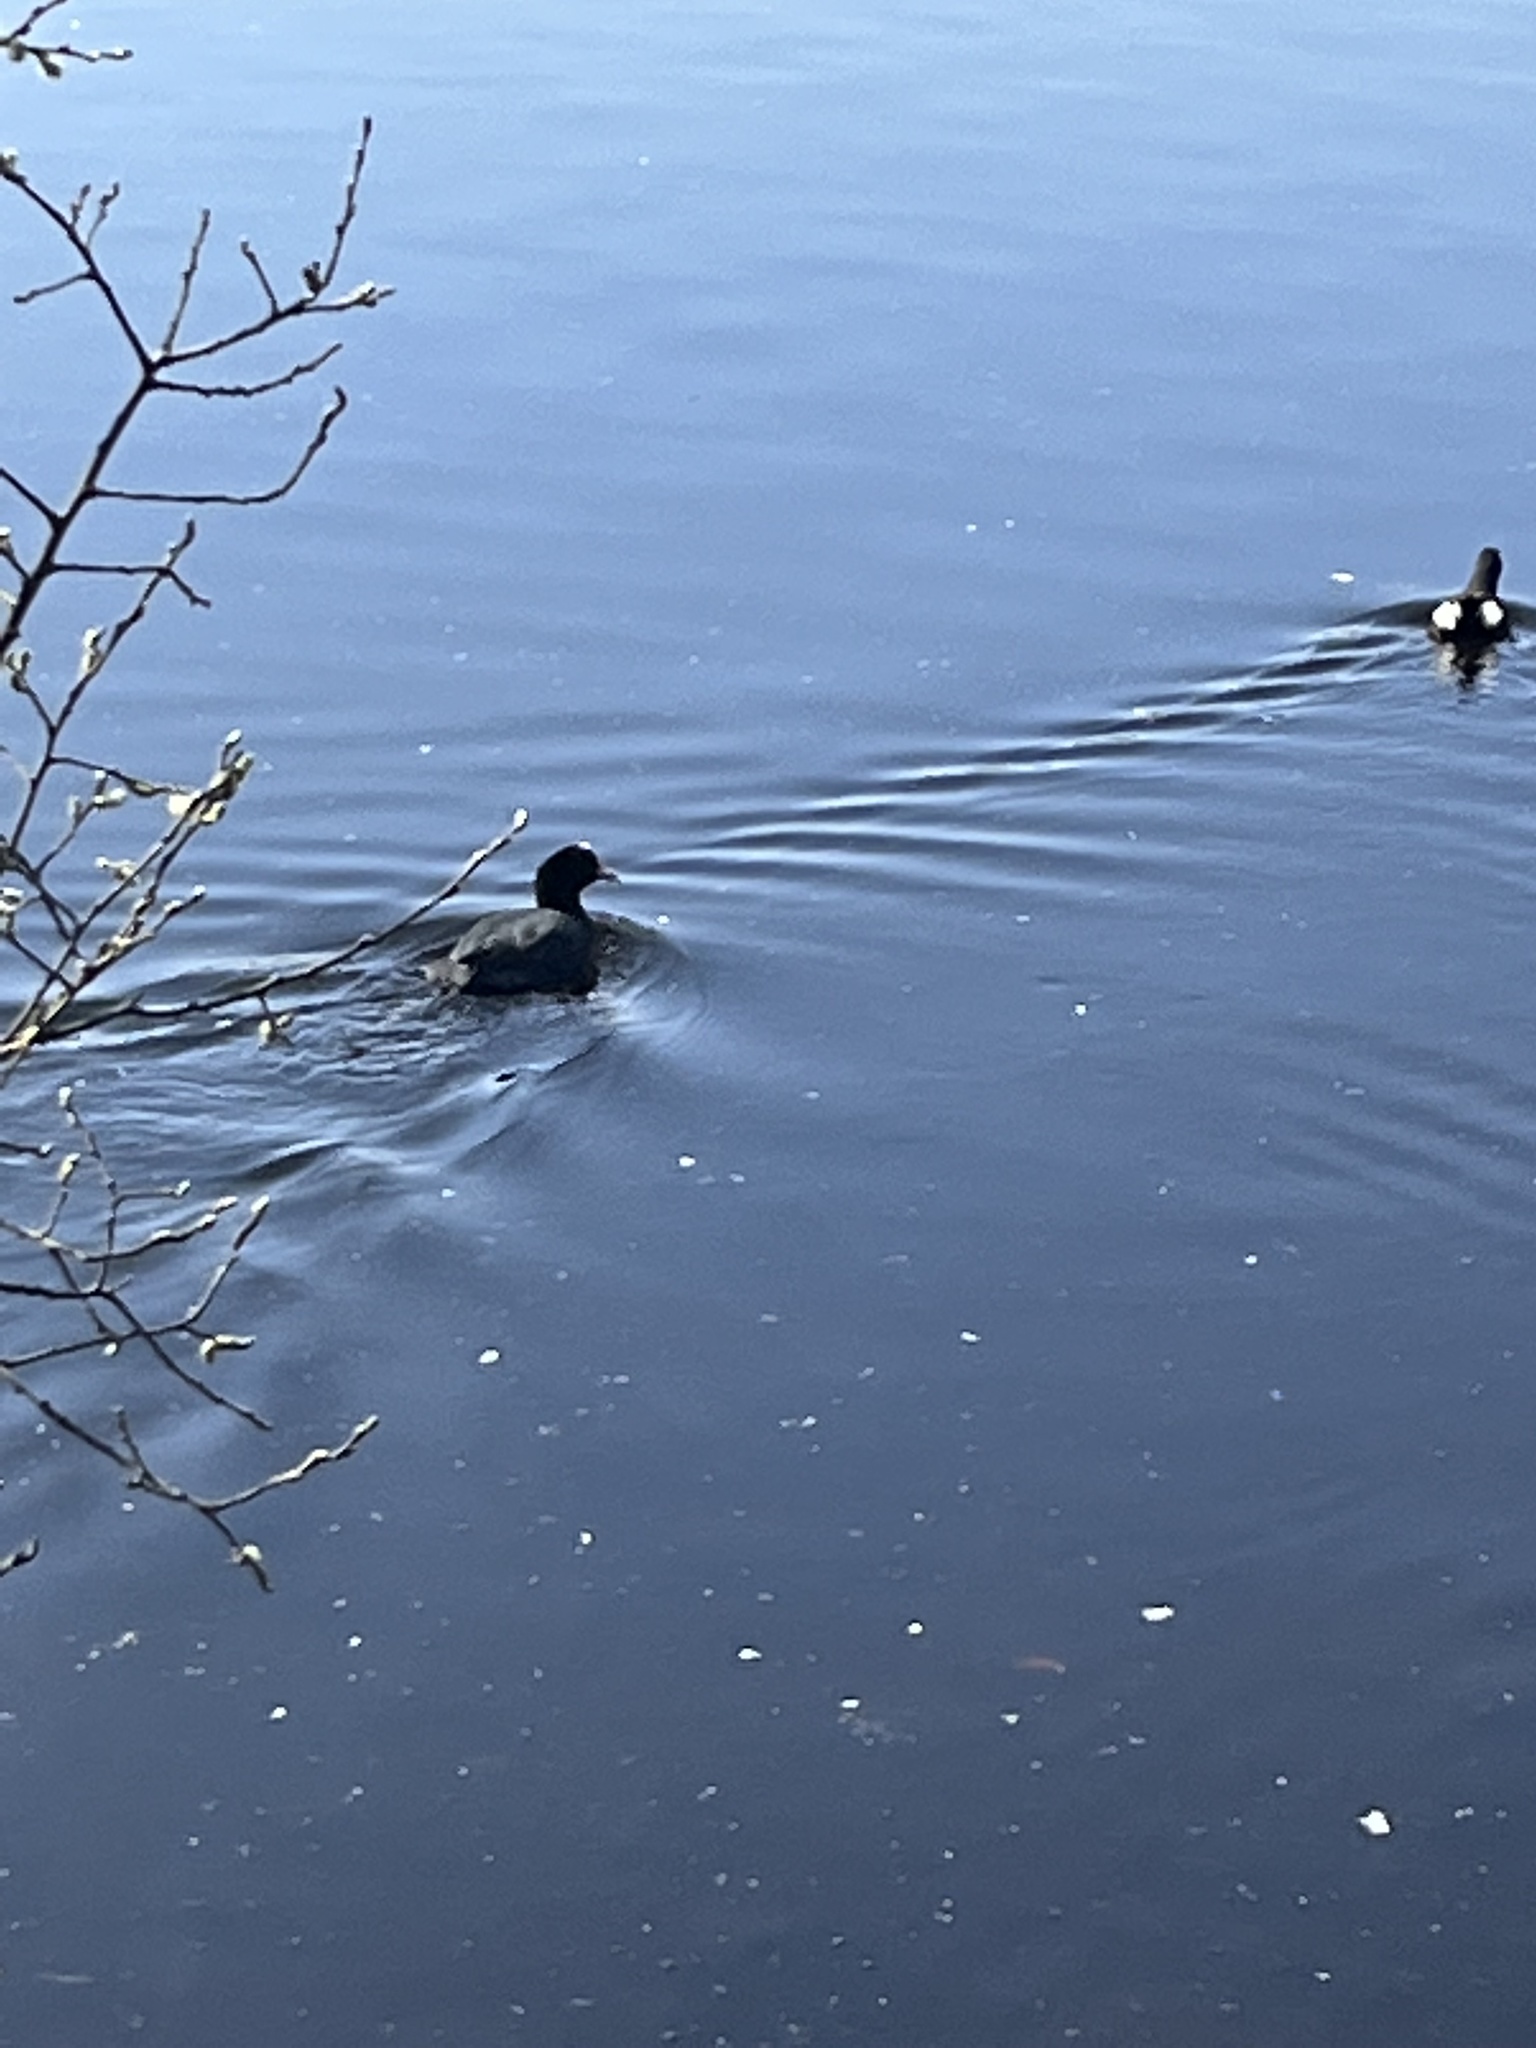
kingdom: Animalia
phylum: Chordata
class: Aves
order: Gruiformes
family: Rallidae
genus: Fulica
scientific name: Fulica atra
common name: Eurasian coot
